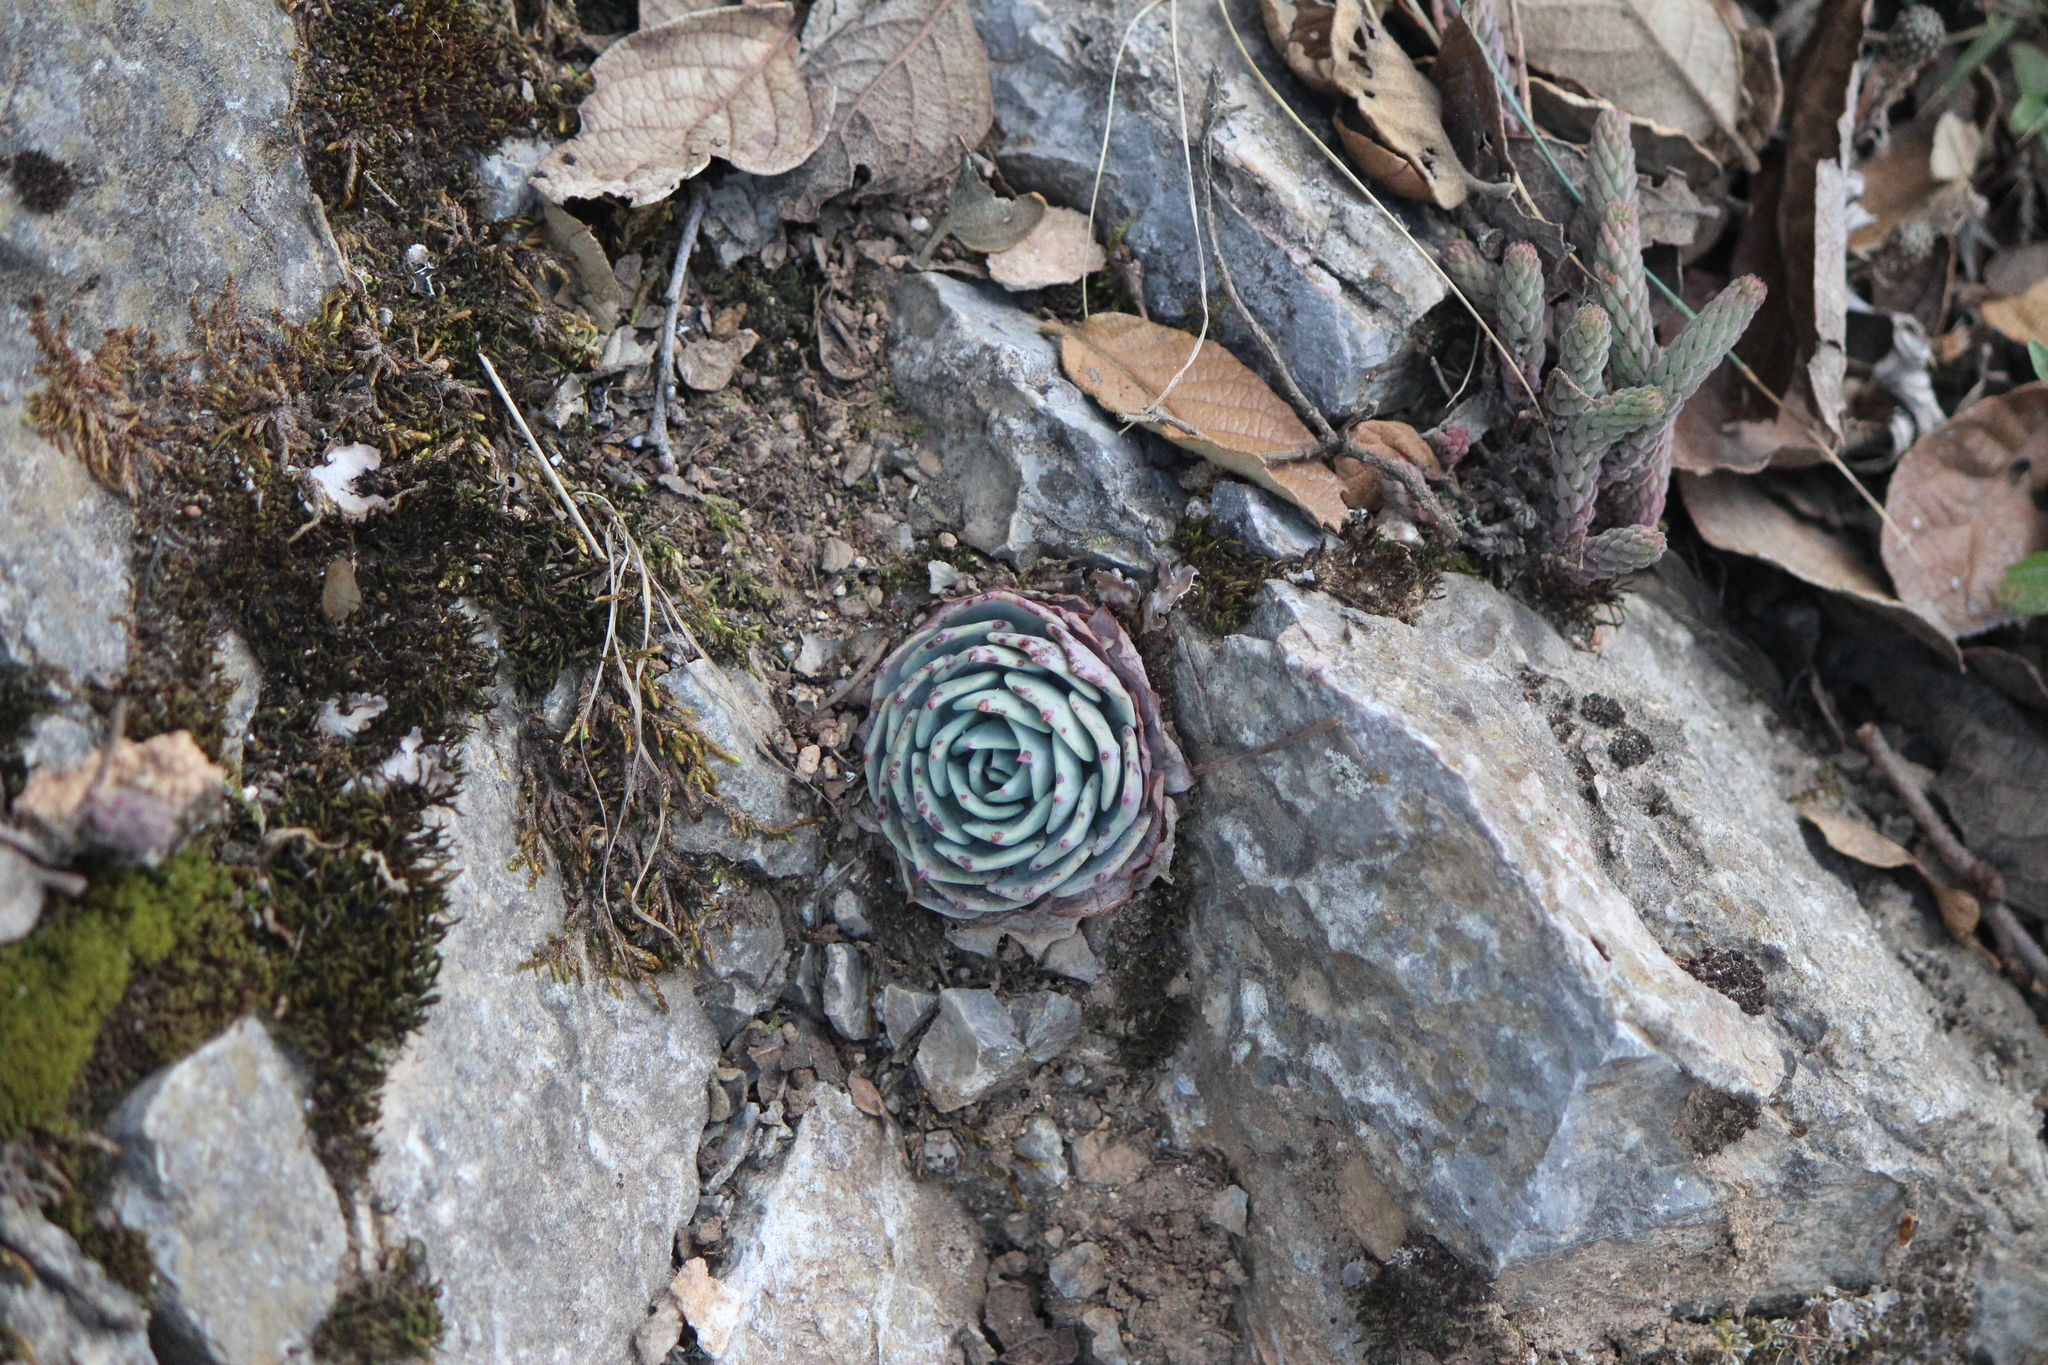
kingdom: Plantae
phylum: Tracheophyta
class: Magnoliopsida
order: Saxifragales
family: Crassulaceae
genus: Echeveria
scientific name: Echeveria secunda
